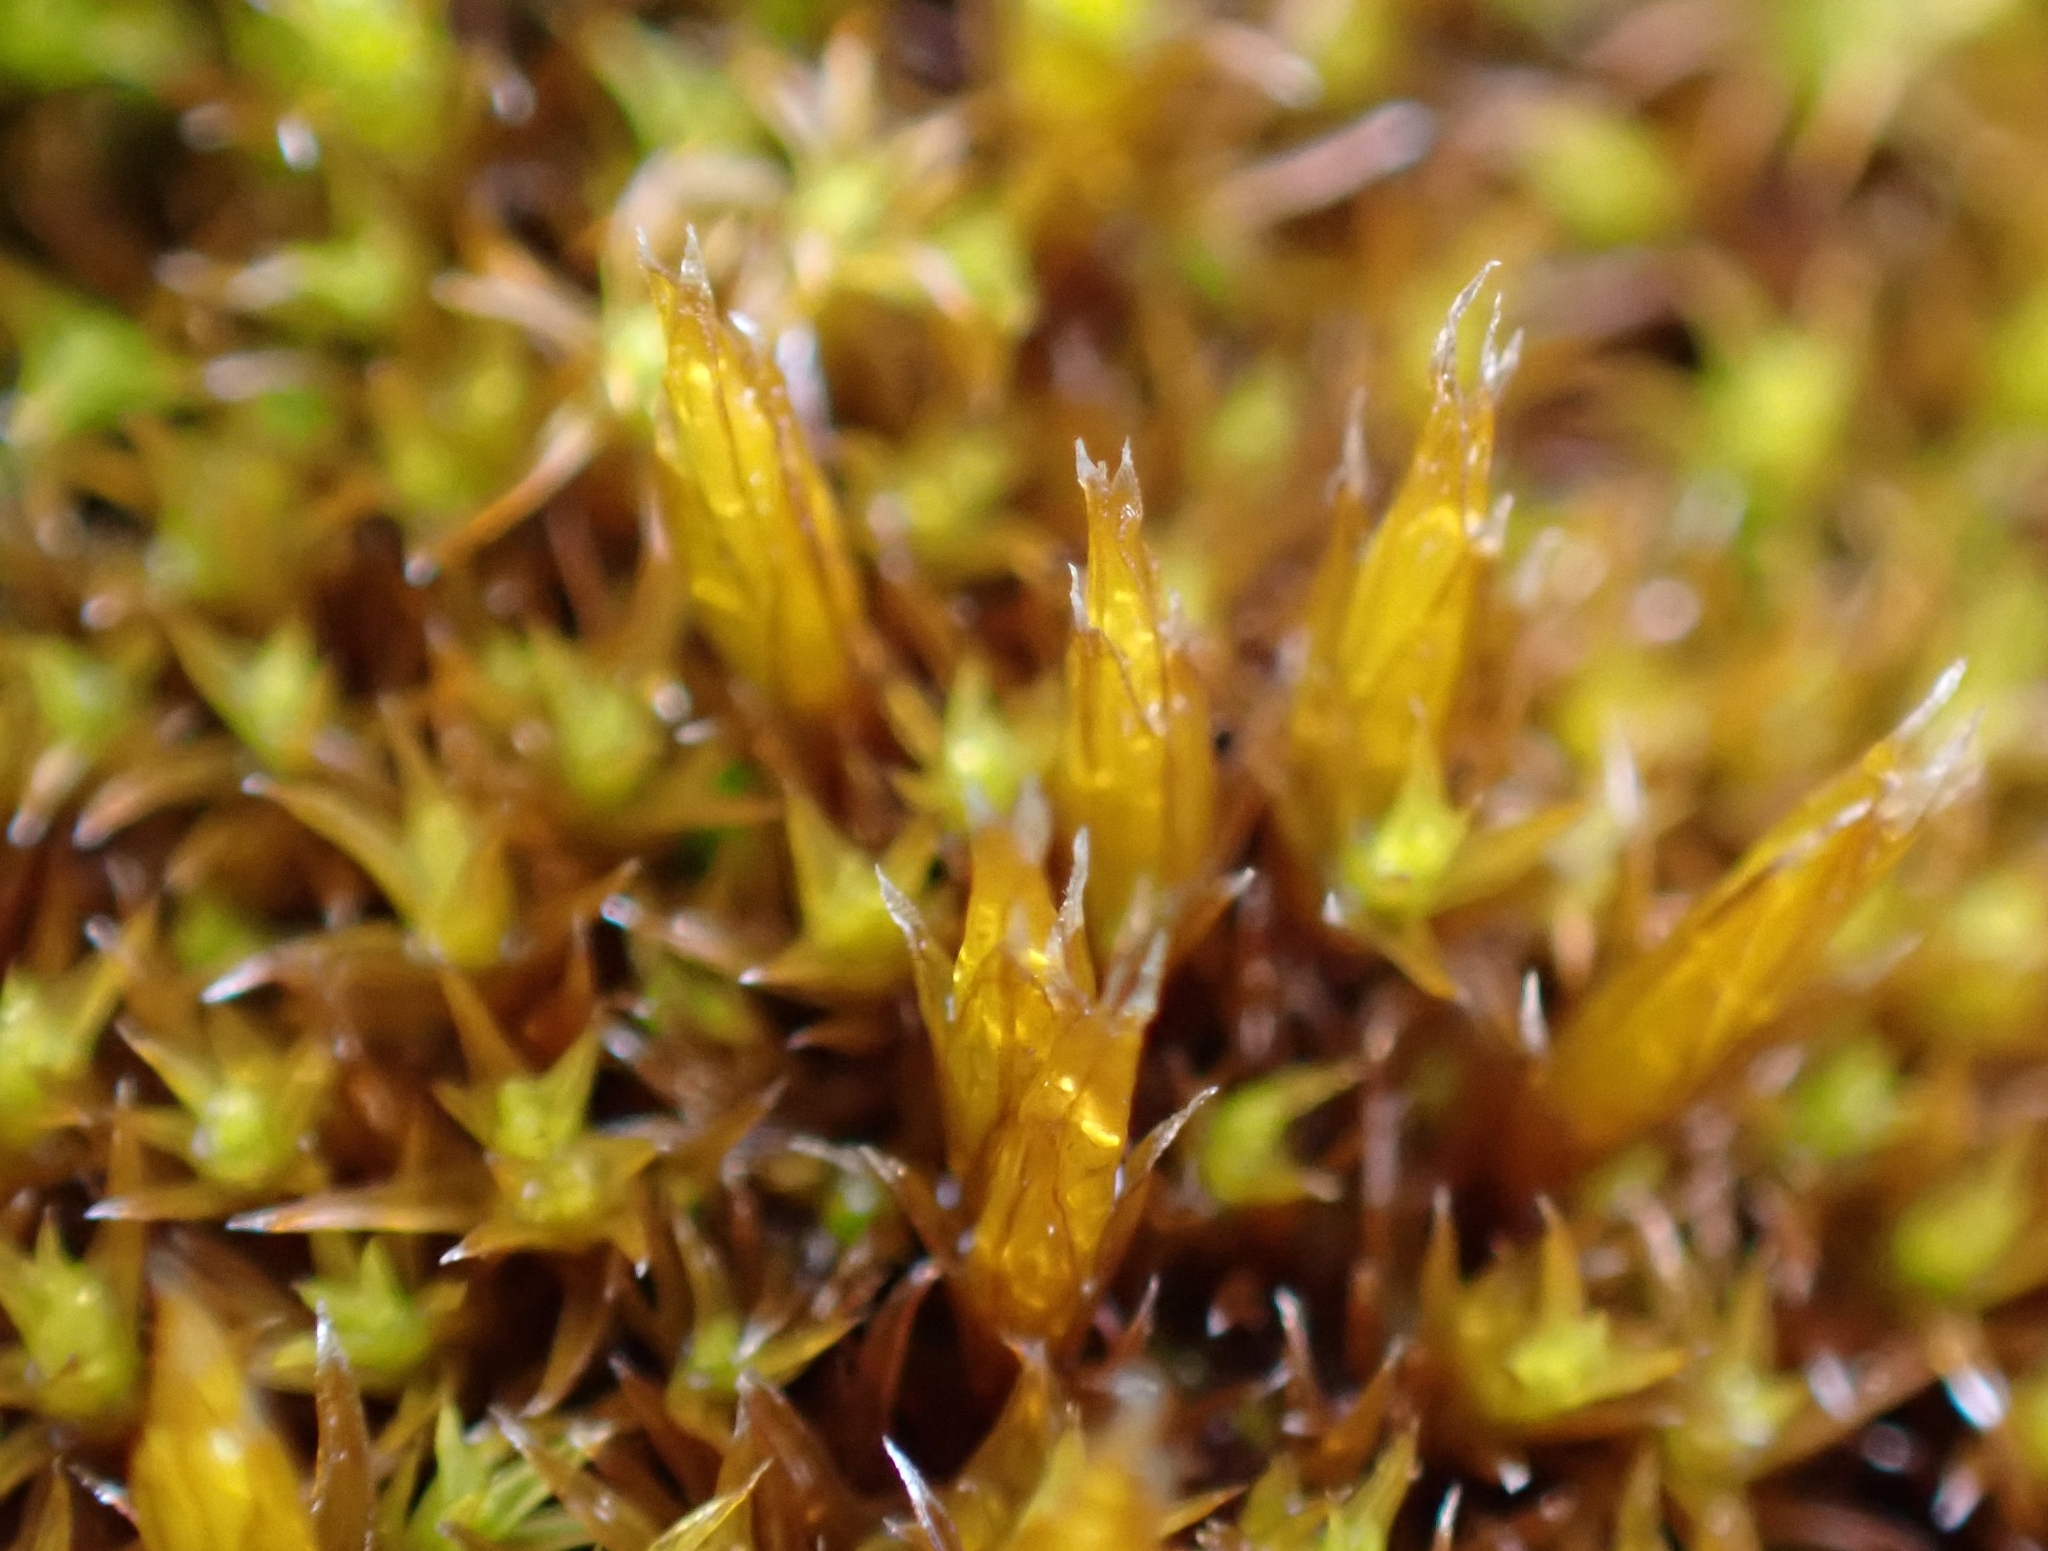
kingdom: Plantae
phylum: Bryophyta
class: Bryopsida
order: Grimmiales
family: Grimmiaceae
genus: Schistidium
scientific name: Schistidium crassipilum
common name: Thickpoint bloom moss
